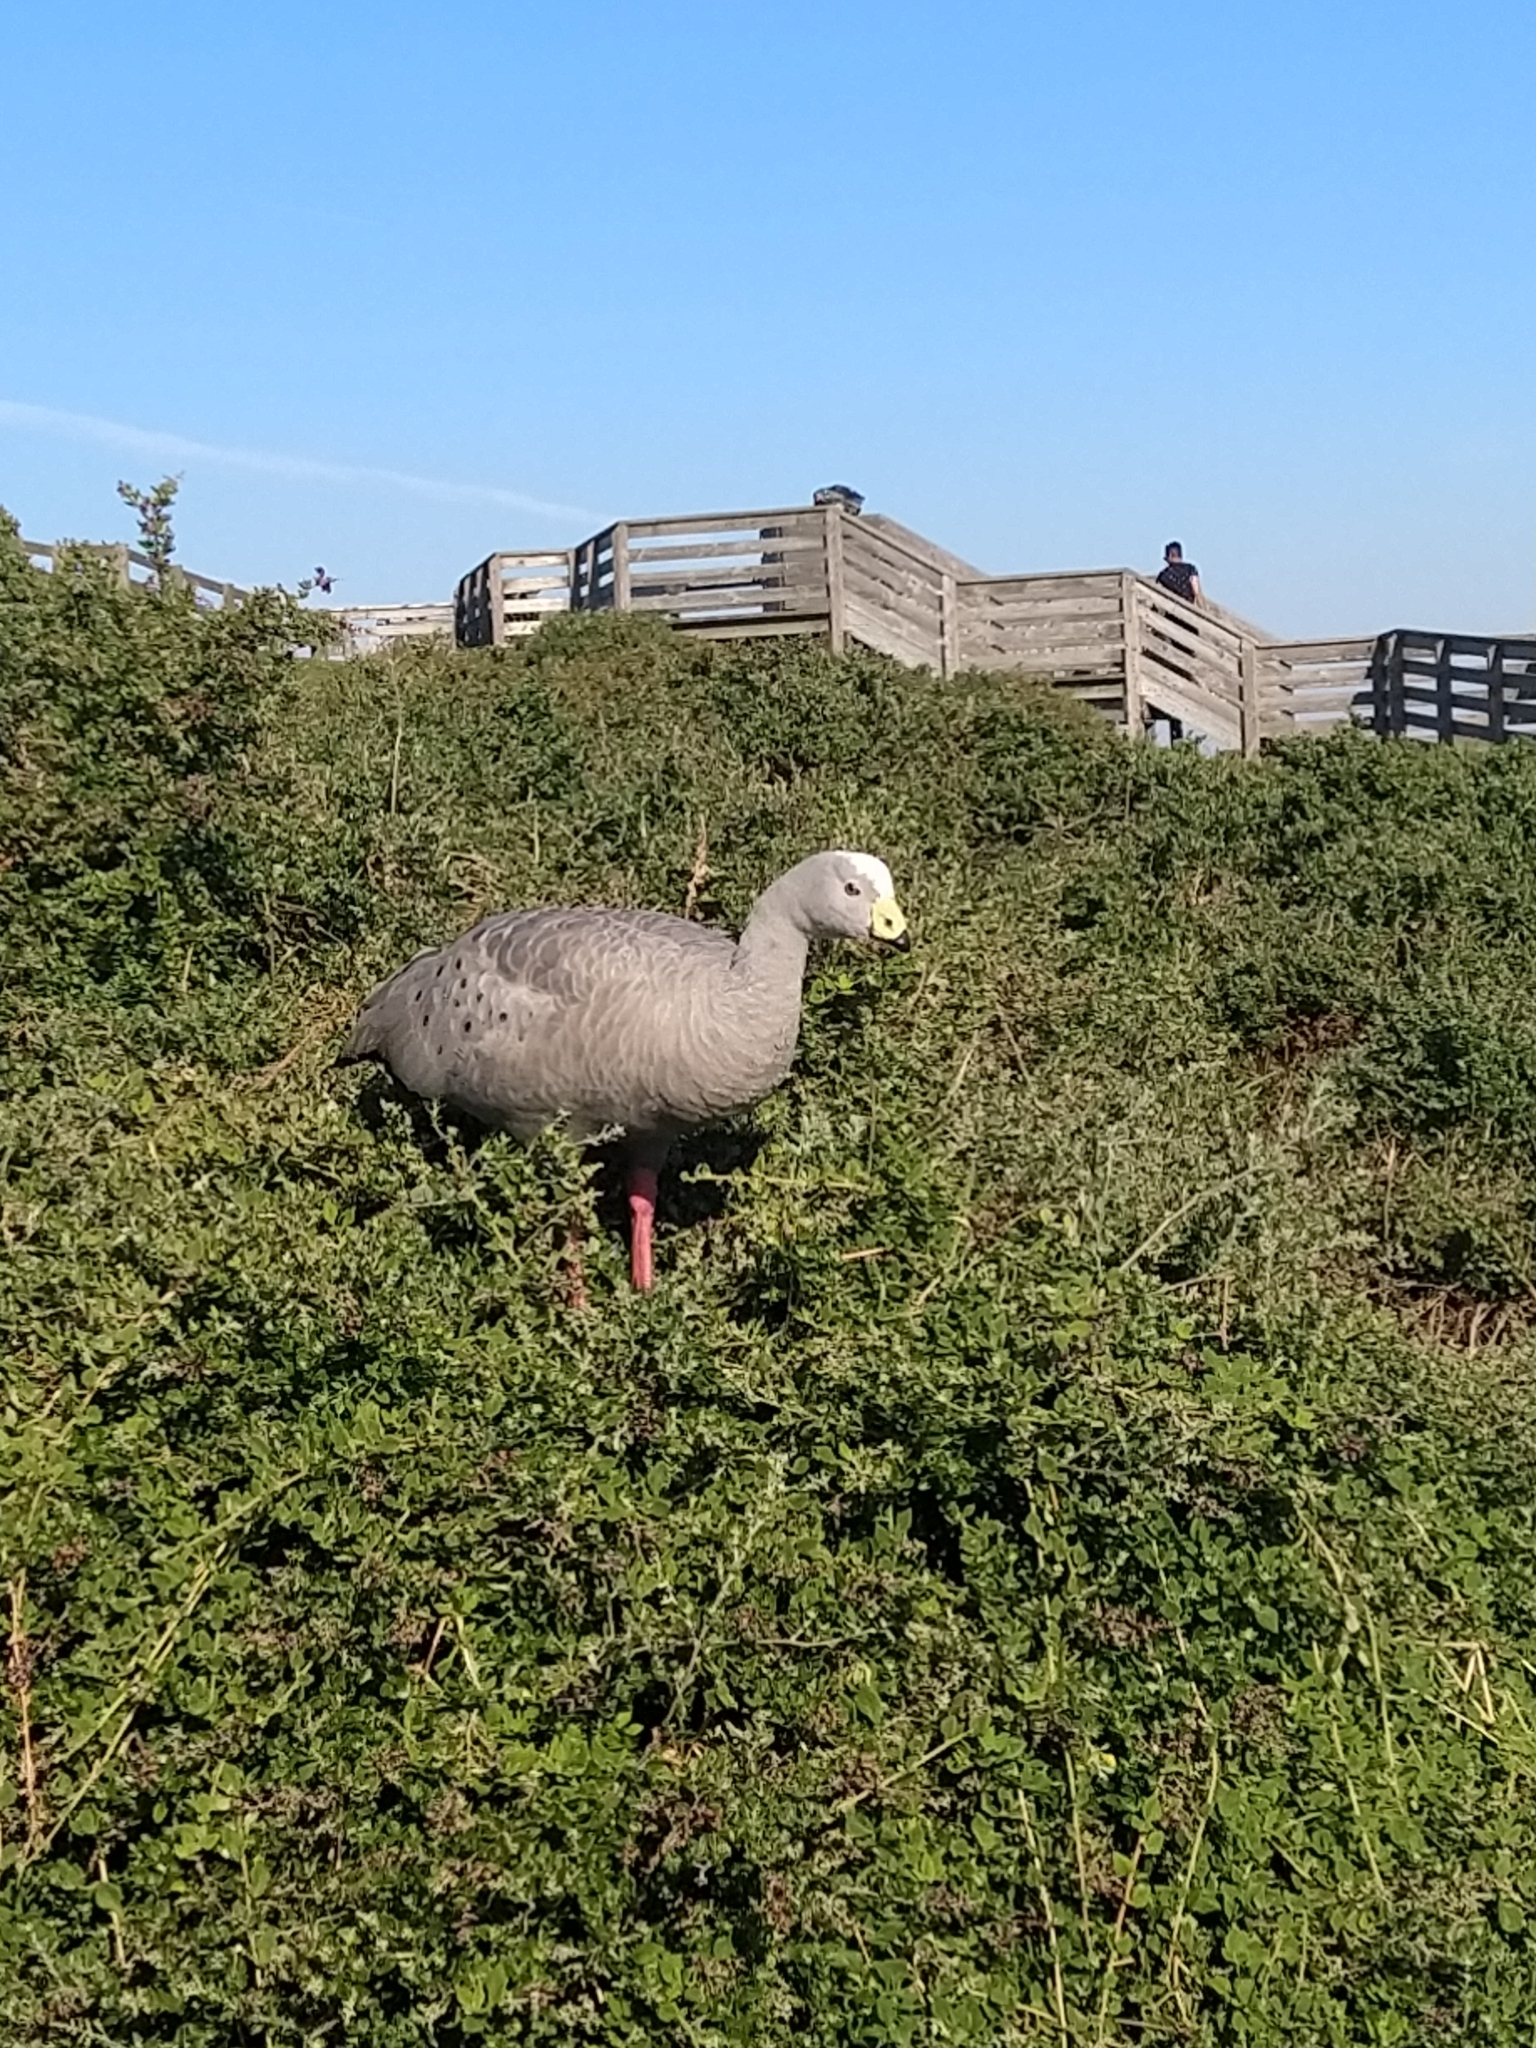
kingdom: Animalia
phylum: Chordata
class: Aves
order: Anseriformes
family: Anatidae
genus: Cereopsis
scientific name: Cereopsis novaehollandiae
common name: Cape barren goose
